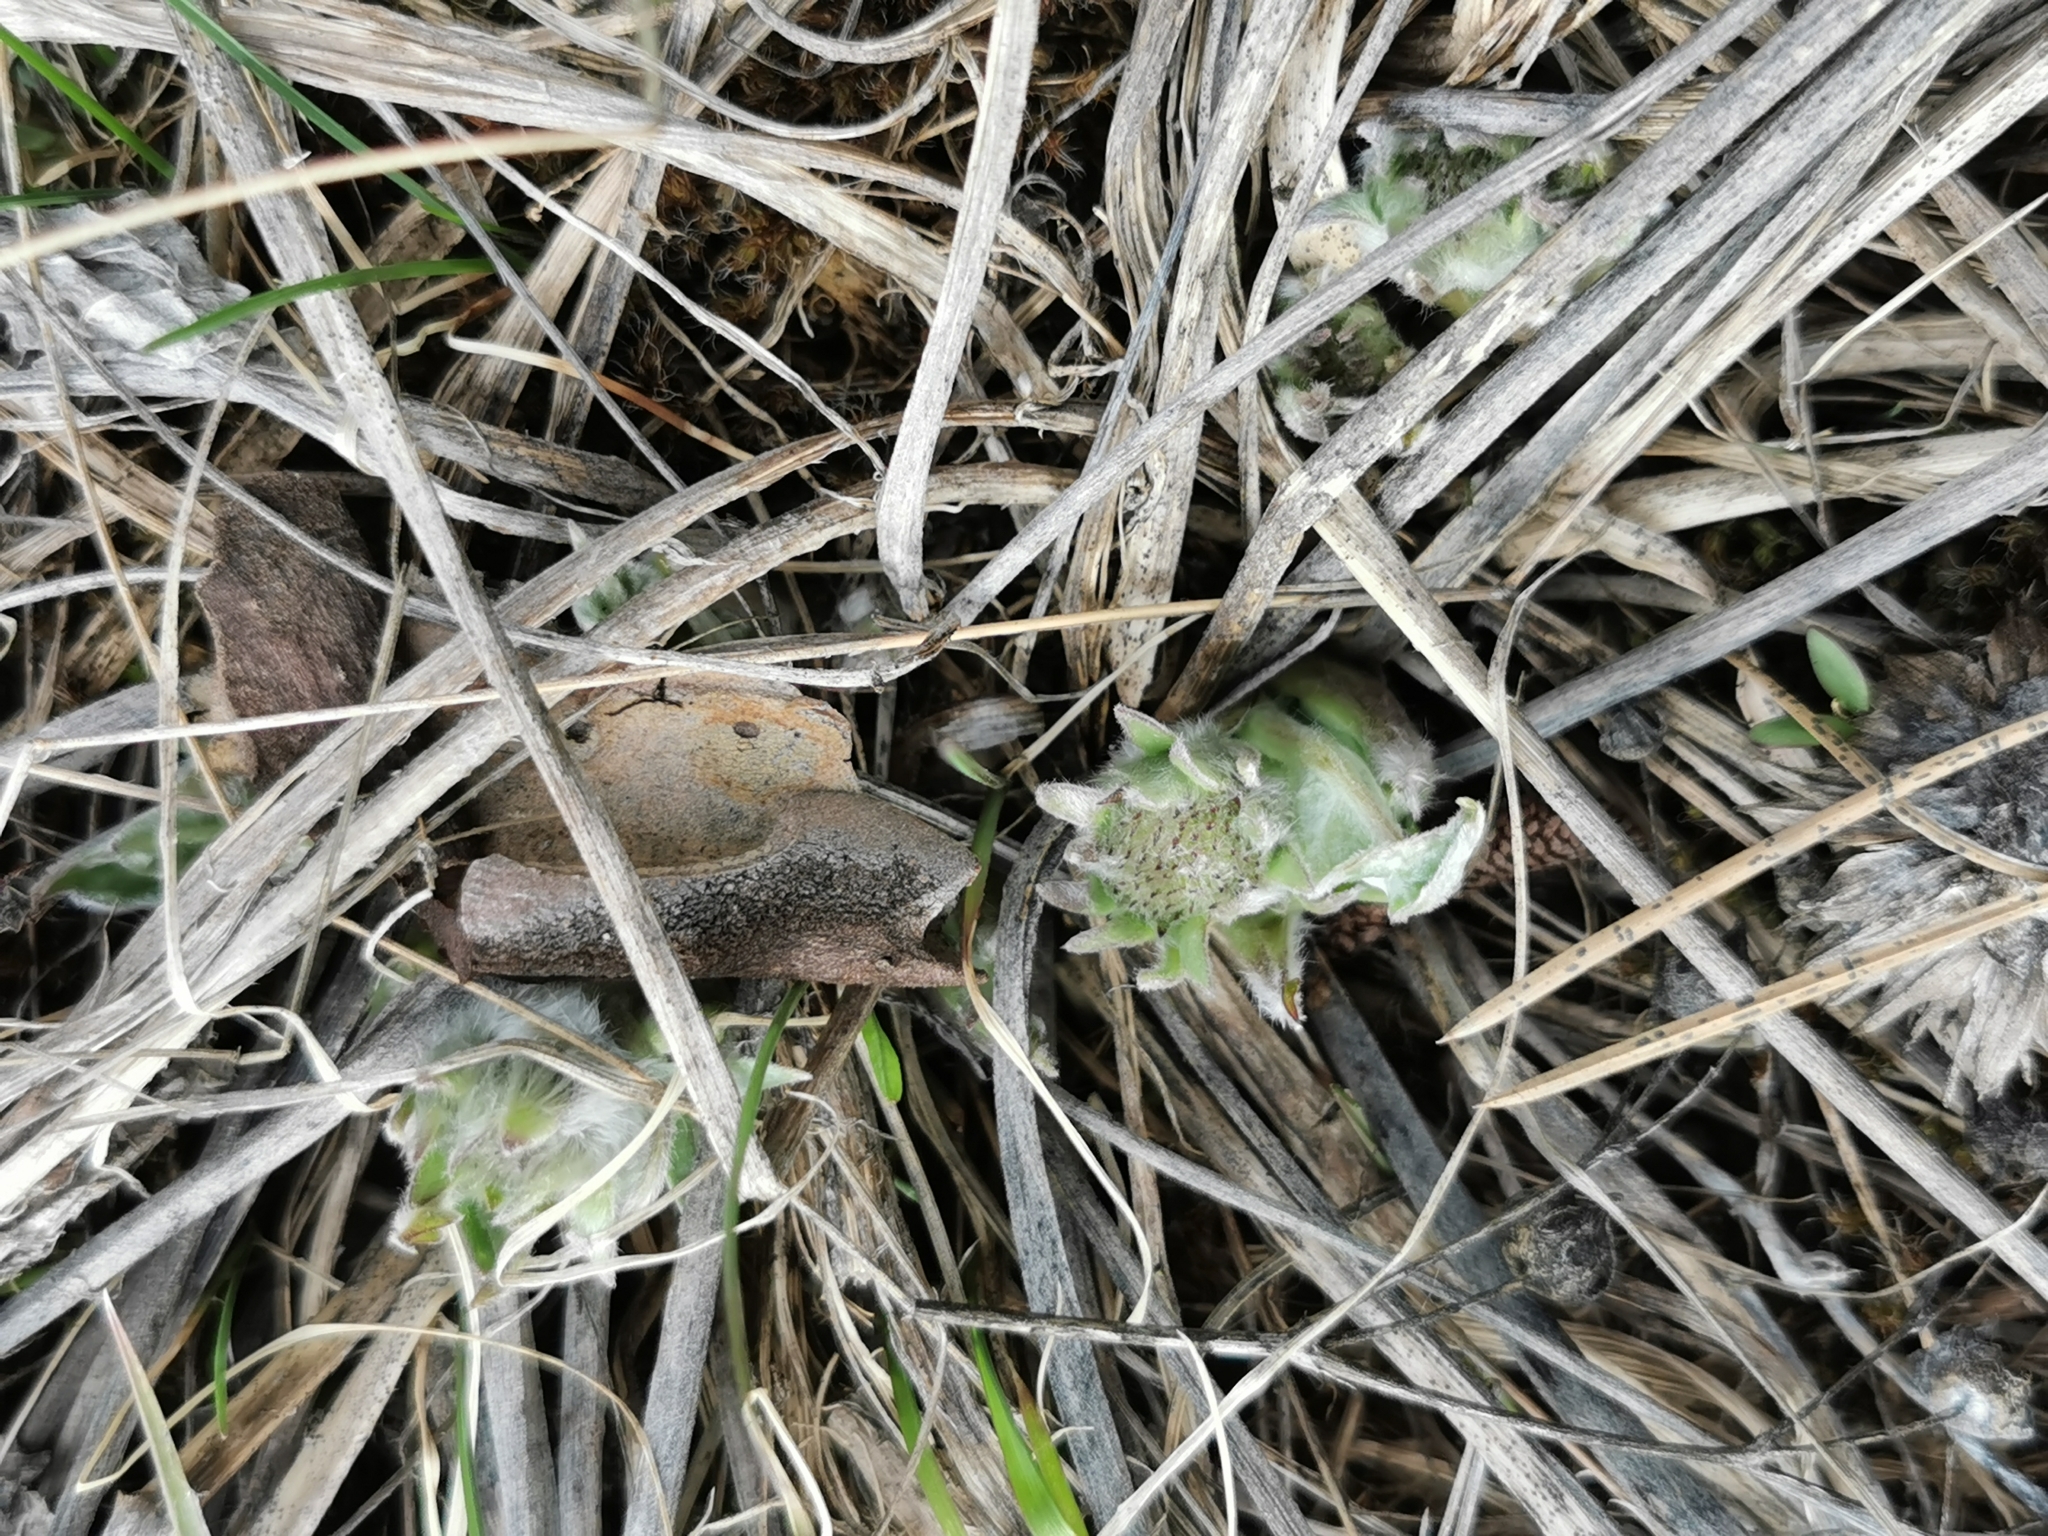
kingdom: Plantae
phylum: Tracheophyta
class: Magnoliopsida
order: Asterales
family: Asteraceae
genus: Wyethia
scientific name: Wyethia sagittata
